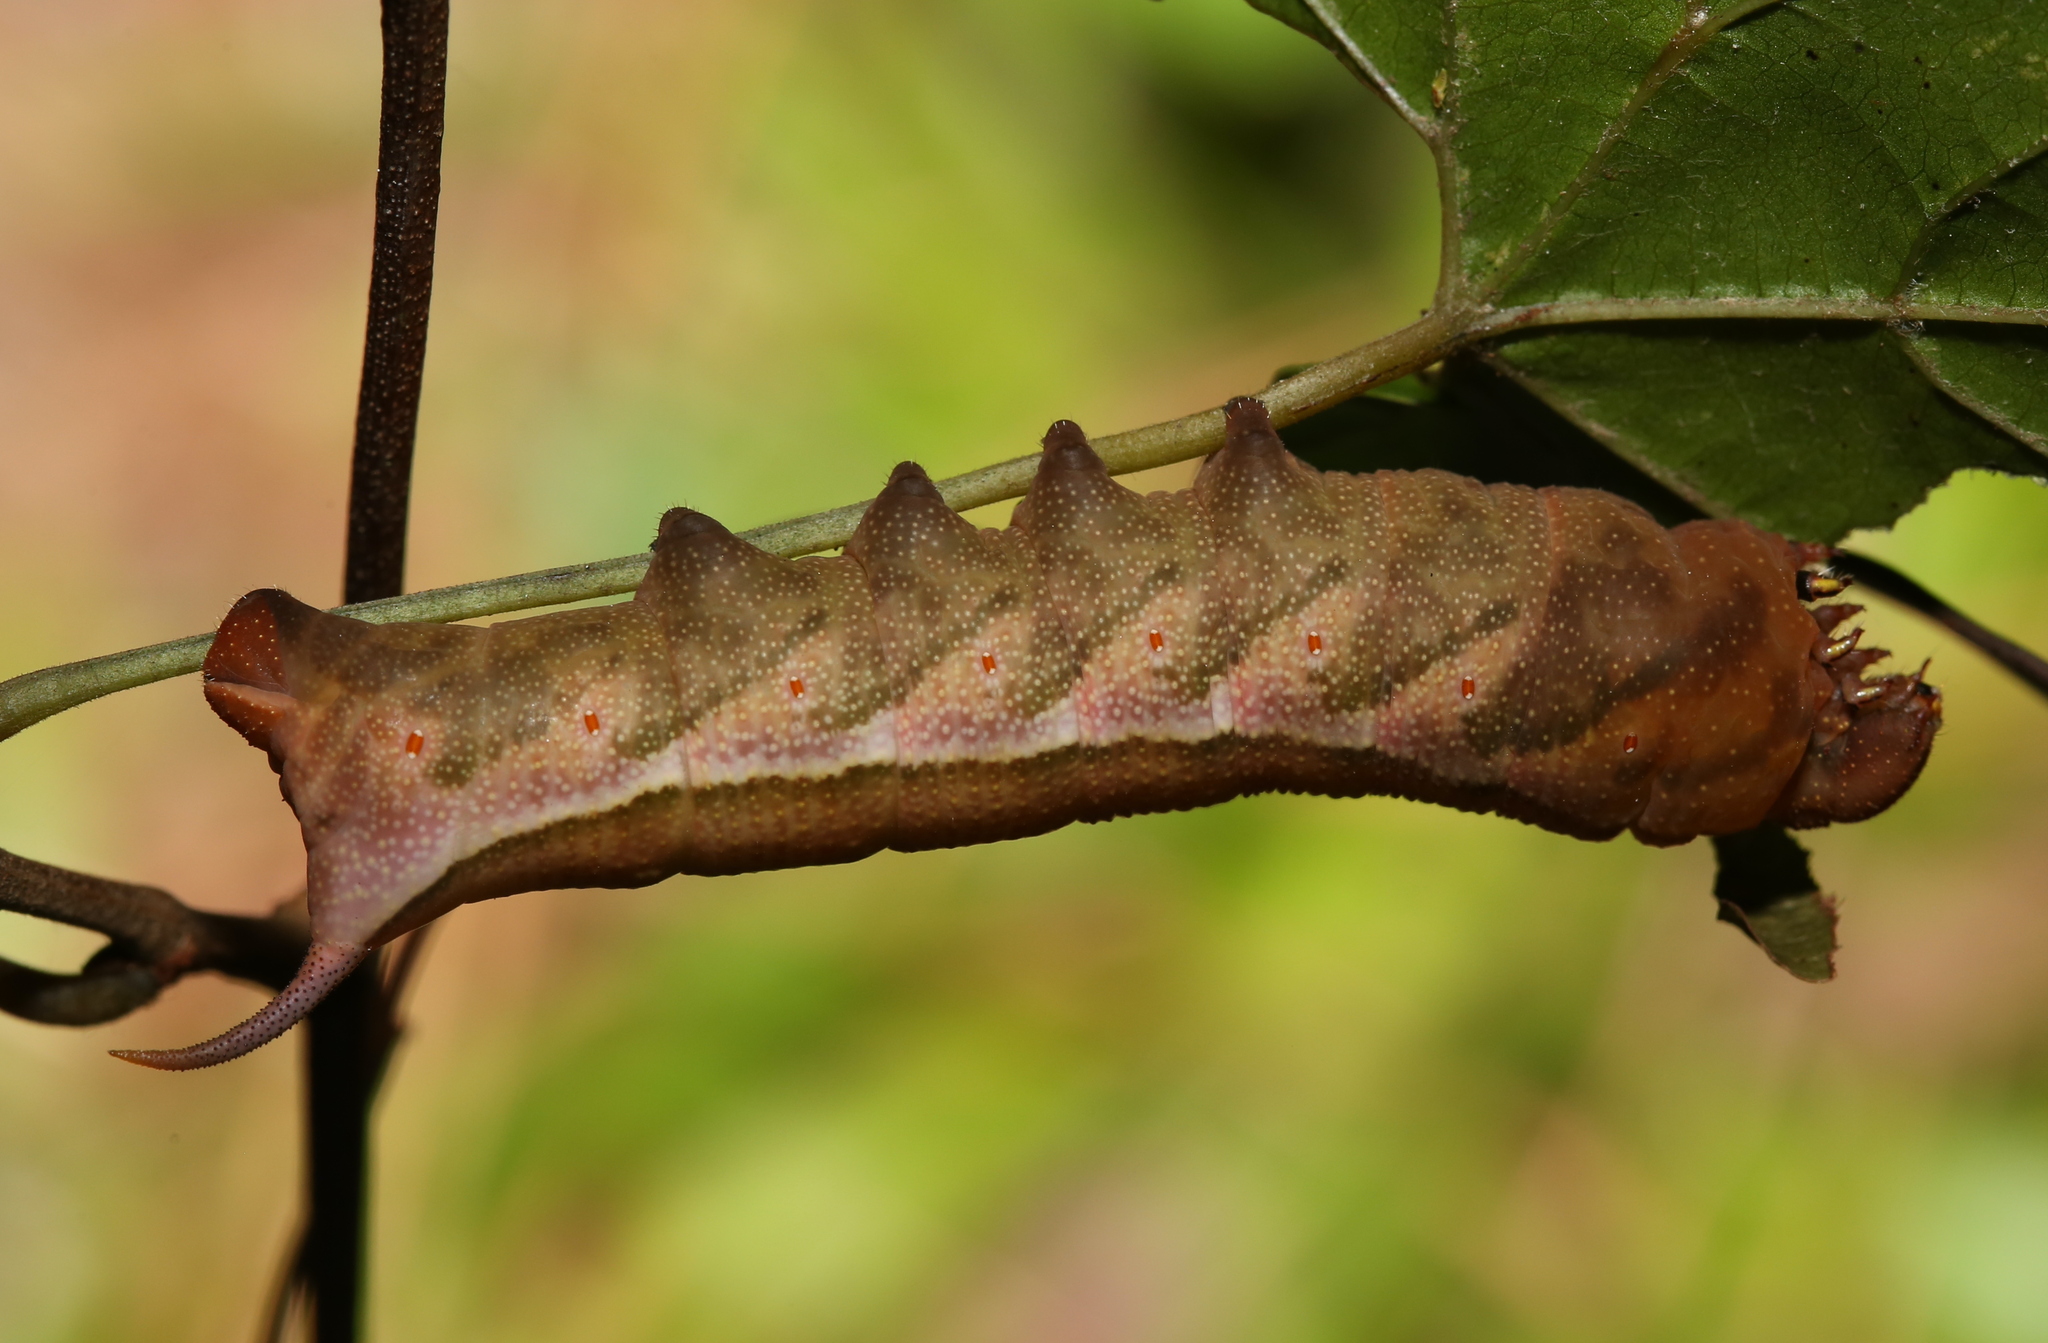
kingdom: Animalia
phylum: Arthropoda
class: Insecta
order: Lepidoptera
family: Sphingidae
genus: Darapsa
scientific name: Darapsa myron
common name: Hog sphinx
